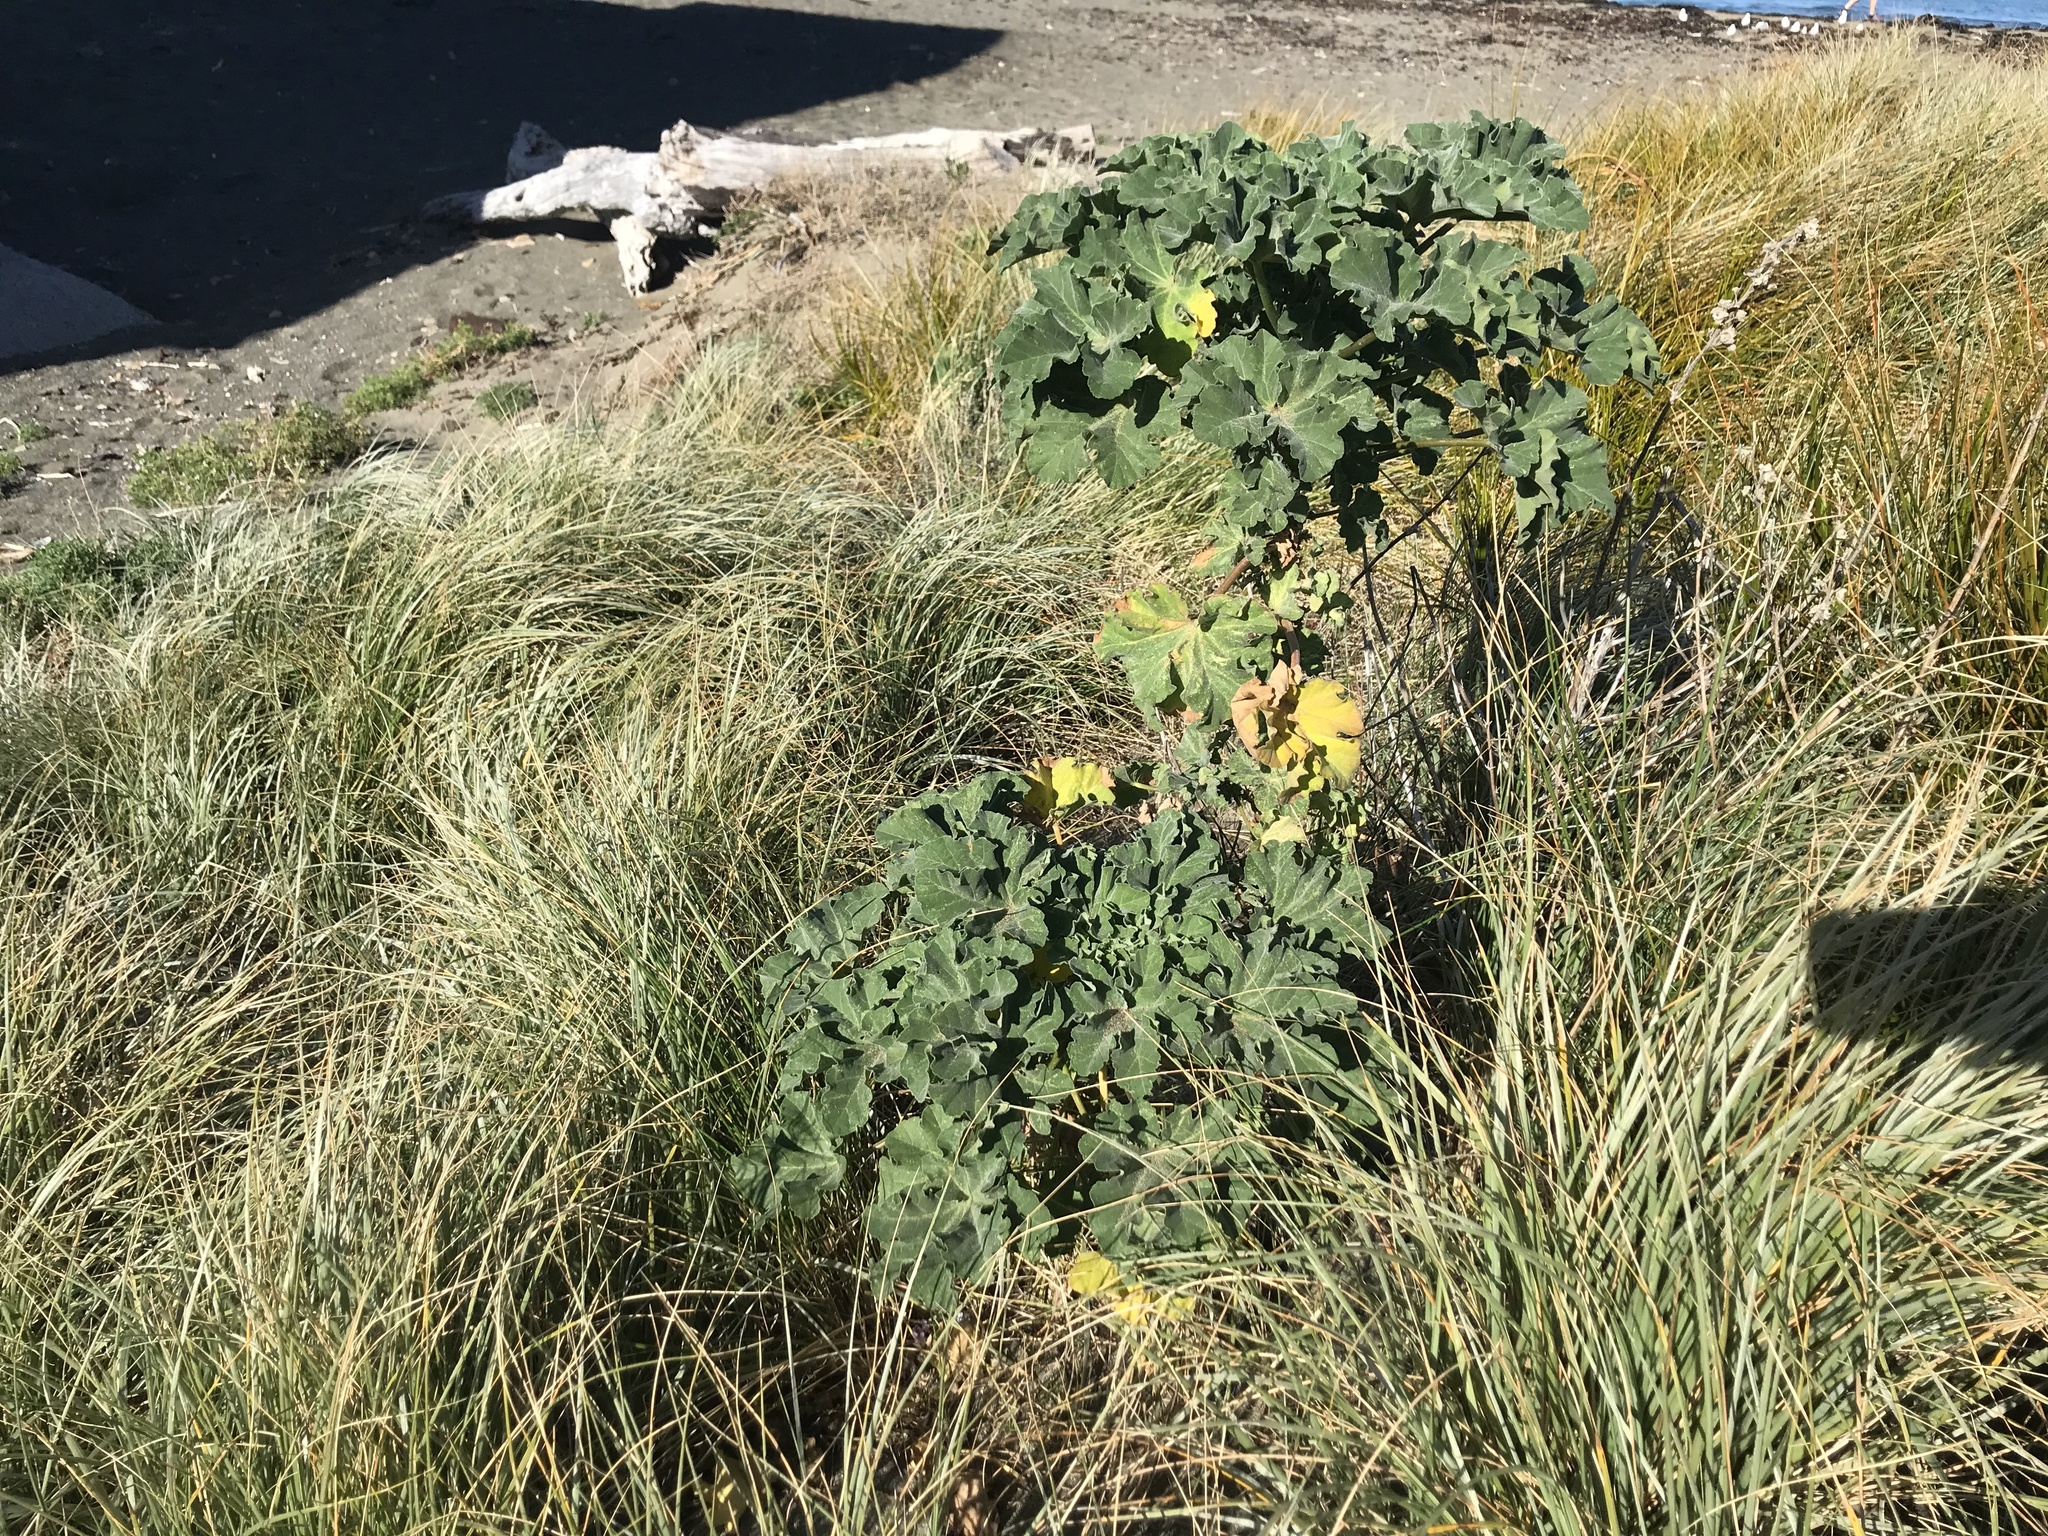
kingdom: Plantae
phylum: Tracheophyta
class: Magnoliopsida
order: Malvales
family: Malvaceae
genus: Malva
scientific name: Malva arborea
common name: Tree mallow
